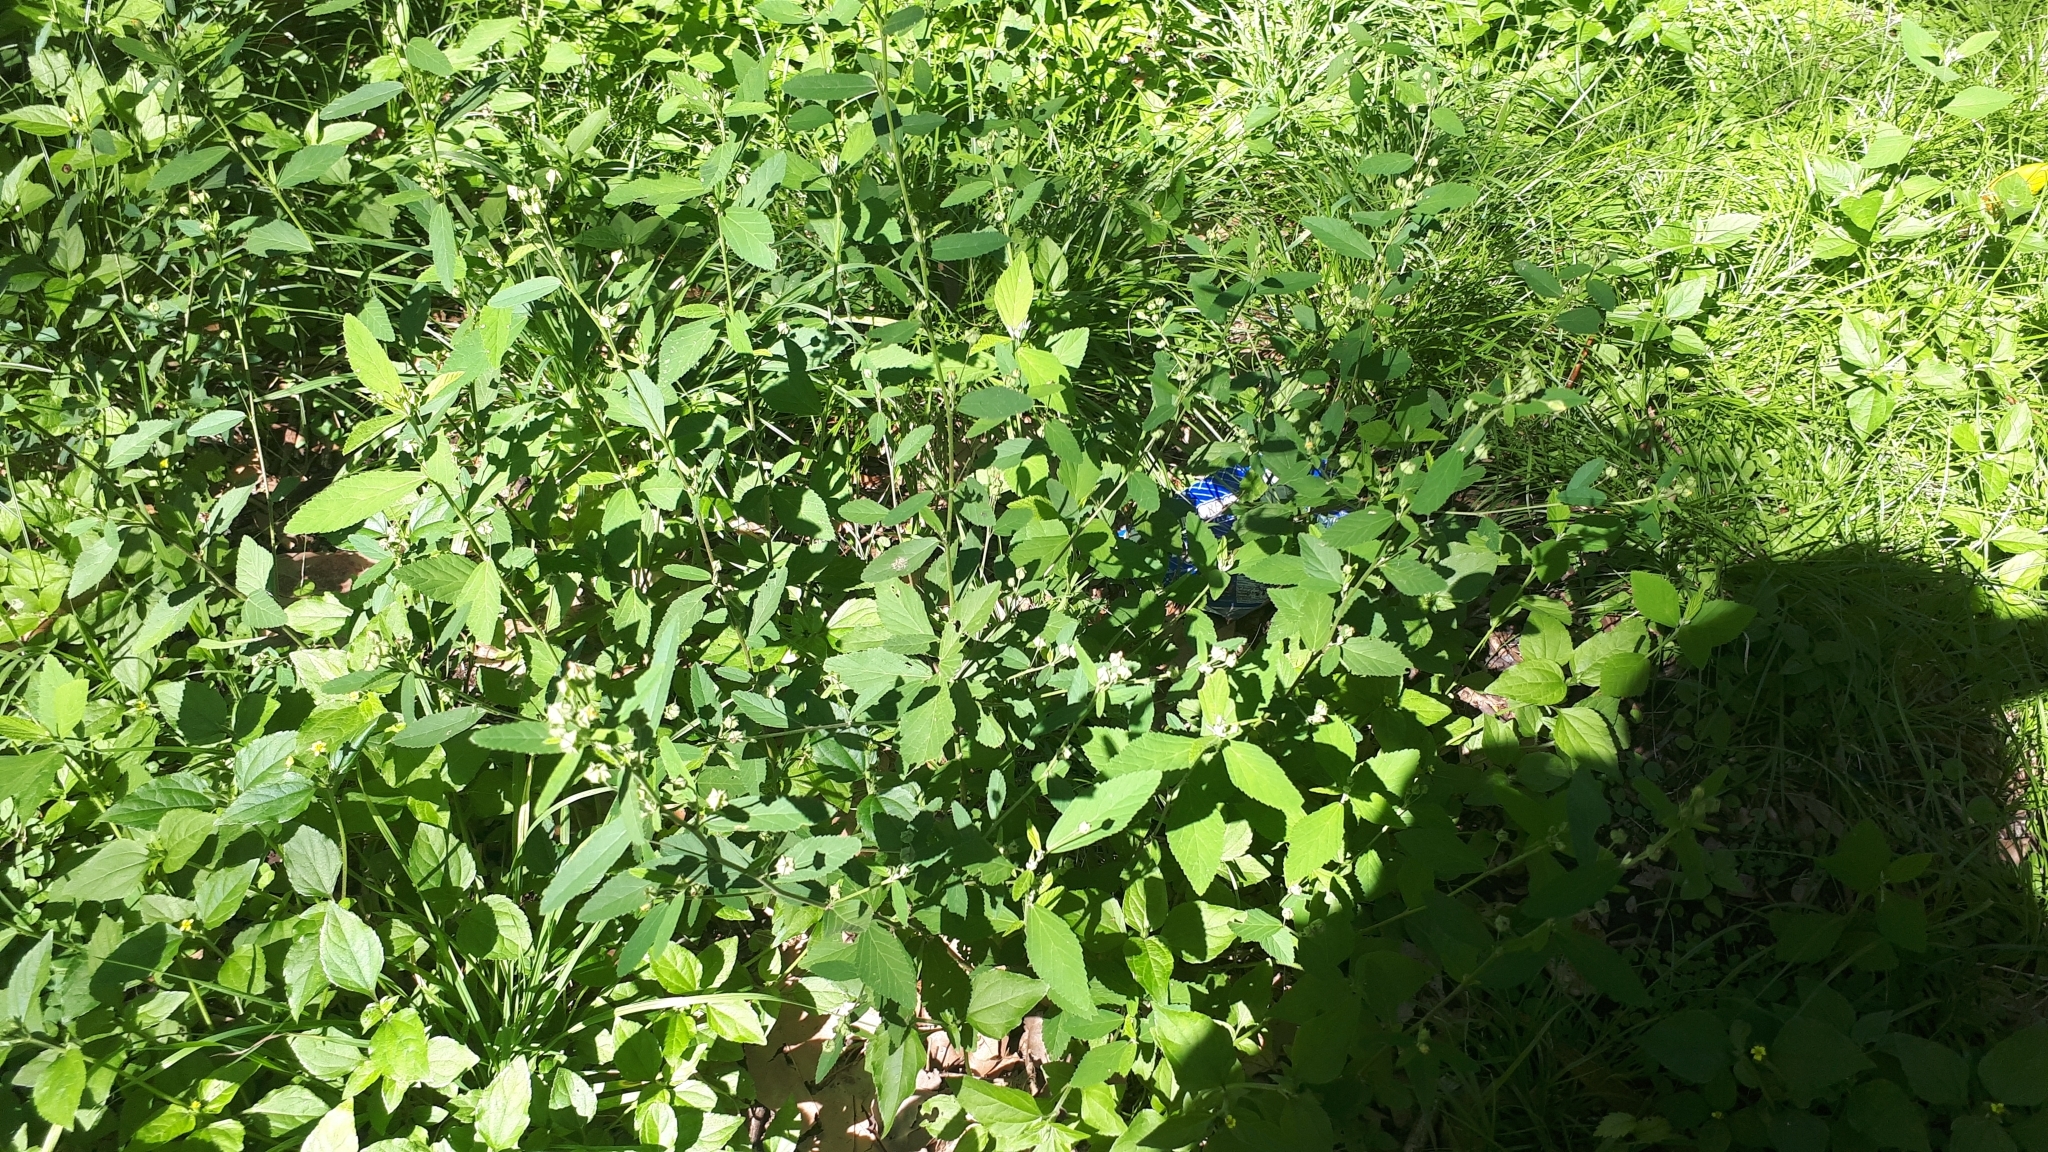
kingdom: Plantae
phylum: Tracheophyta
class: Magnoliopsida
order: Asterales
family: Asteraceae
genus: Calyptocarpus
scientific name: Calyptocarpus brasiliensis
